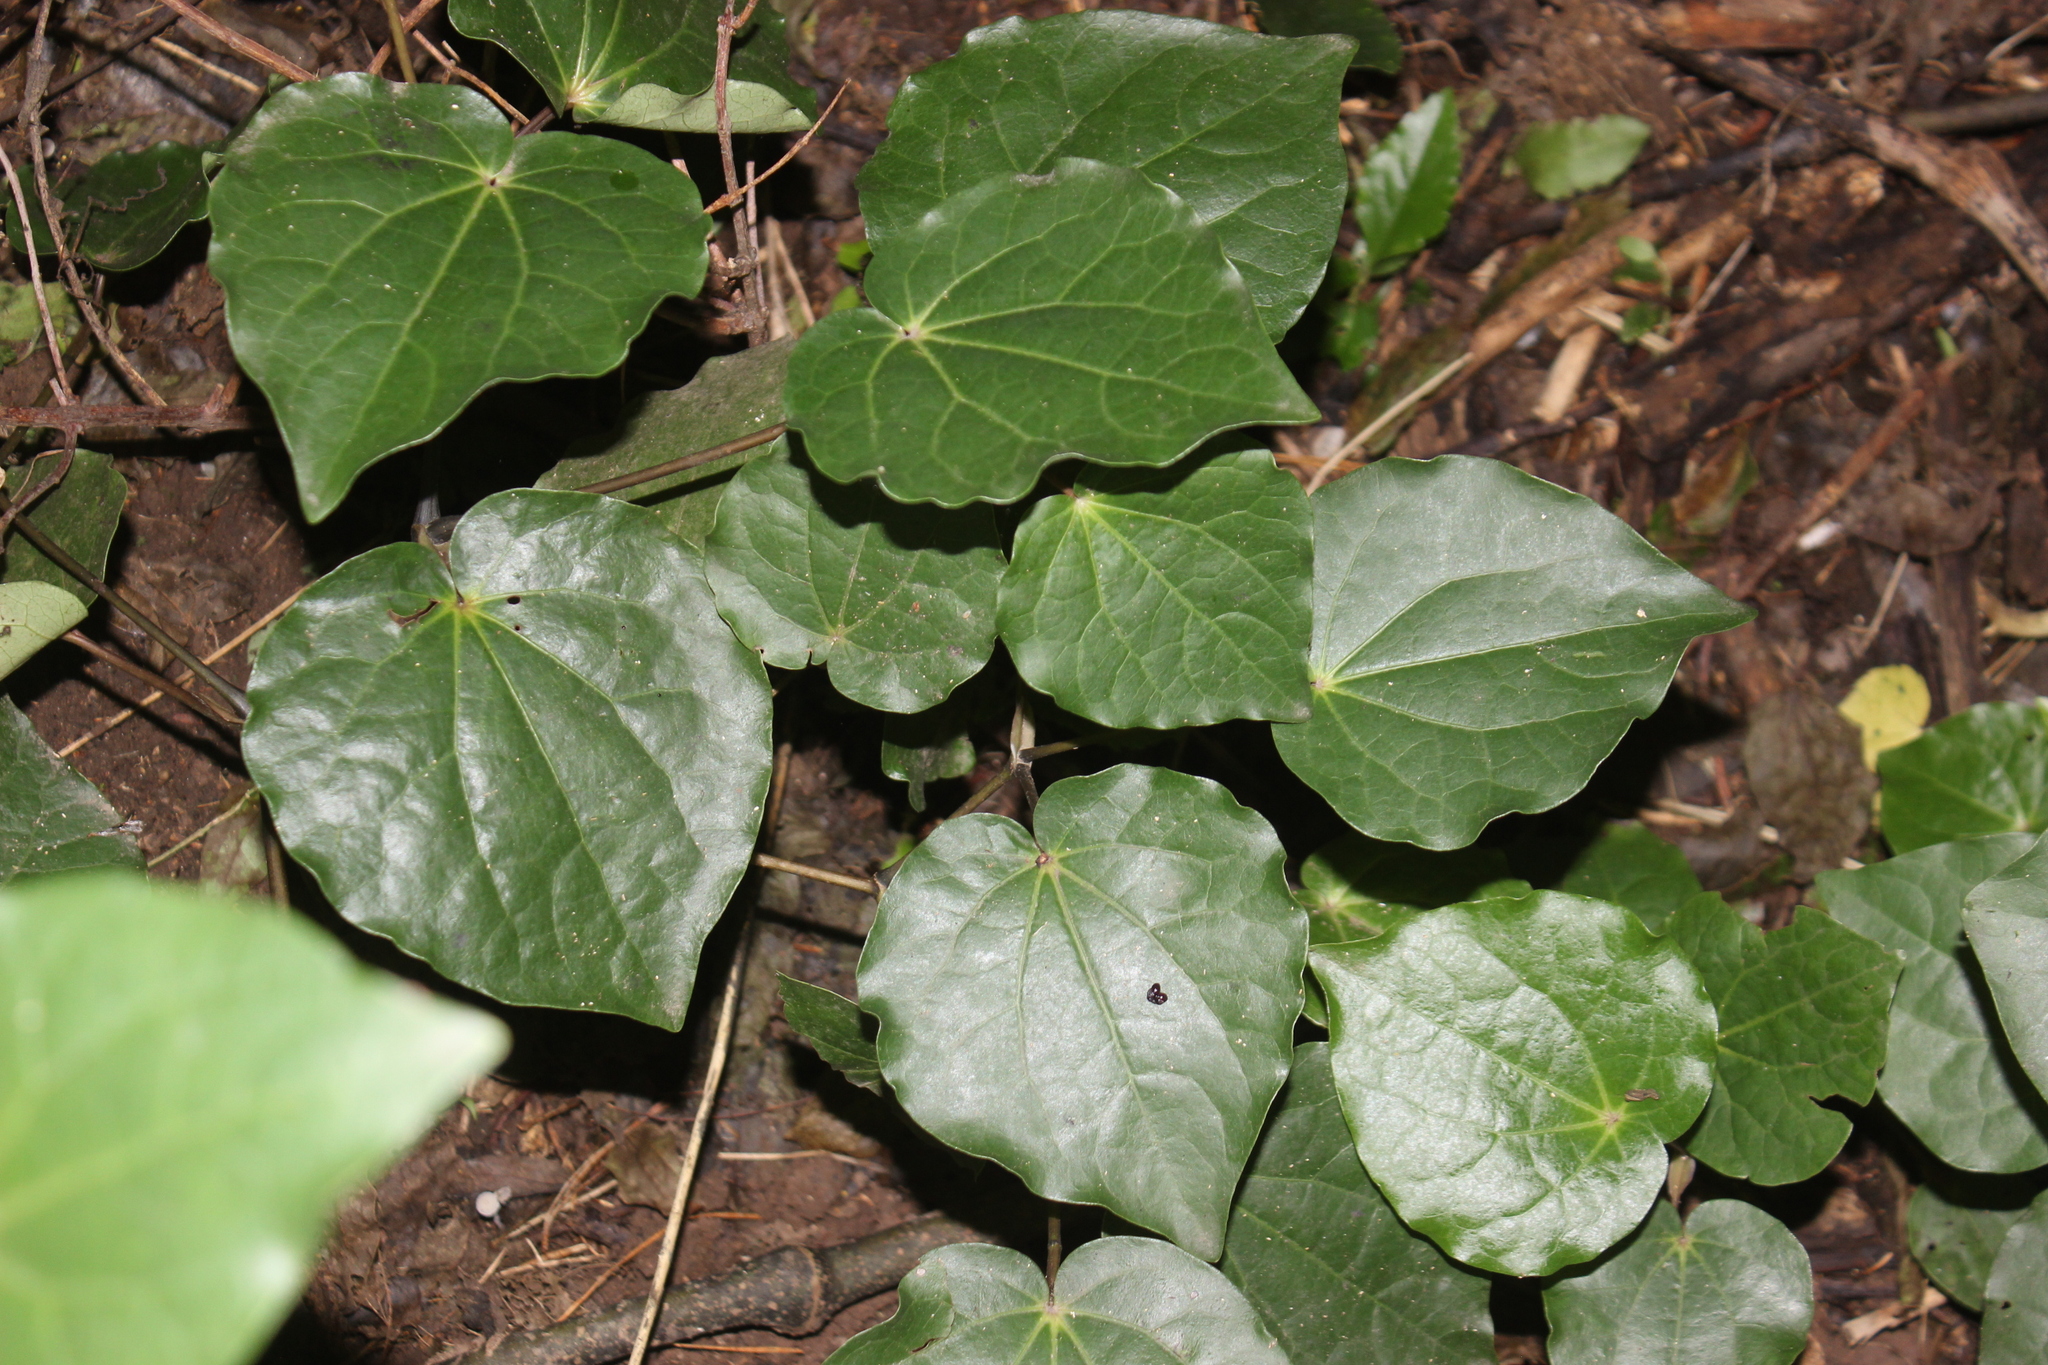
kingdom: Plantae
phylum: Tracheophyta
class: Magnoliopsida
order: Piperales
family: Piperaceae
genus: Macropiper
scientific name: Macropiper excelsum
